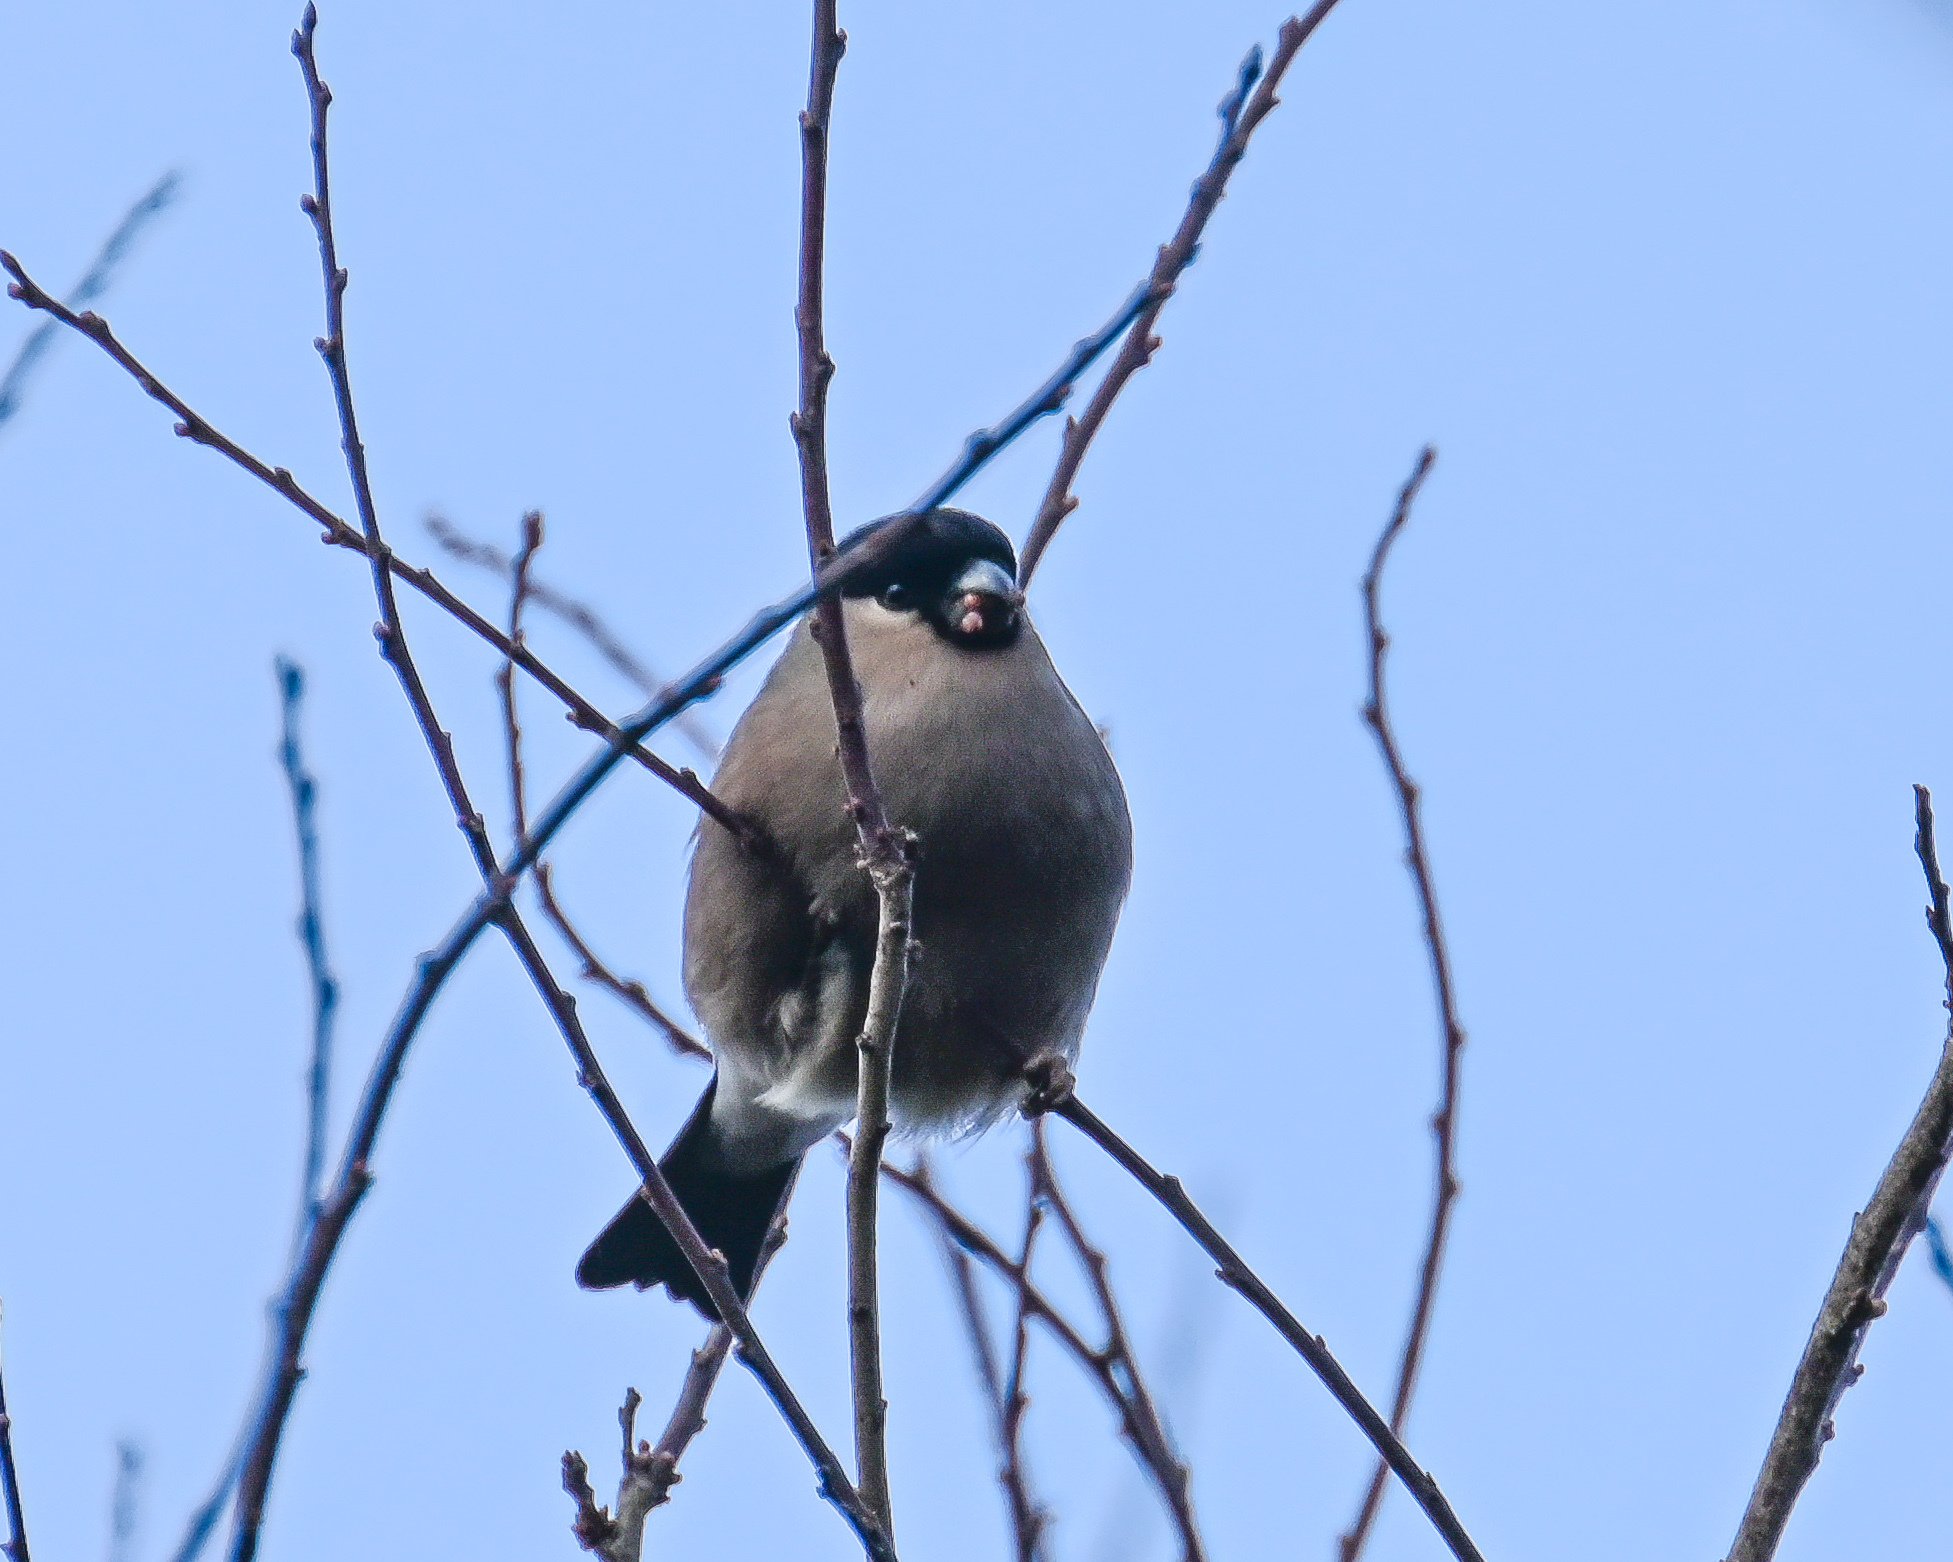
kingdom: Animalia
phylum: Chordata
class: Aves
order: Passeriformes
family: Fringillidae
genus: Pyrrhula
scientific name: Pyrrhula pyrrhula
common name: Eurasian bullfinch
